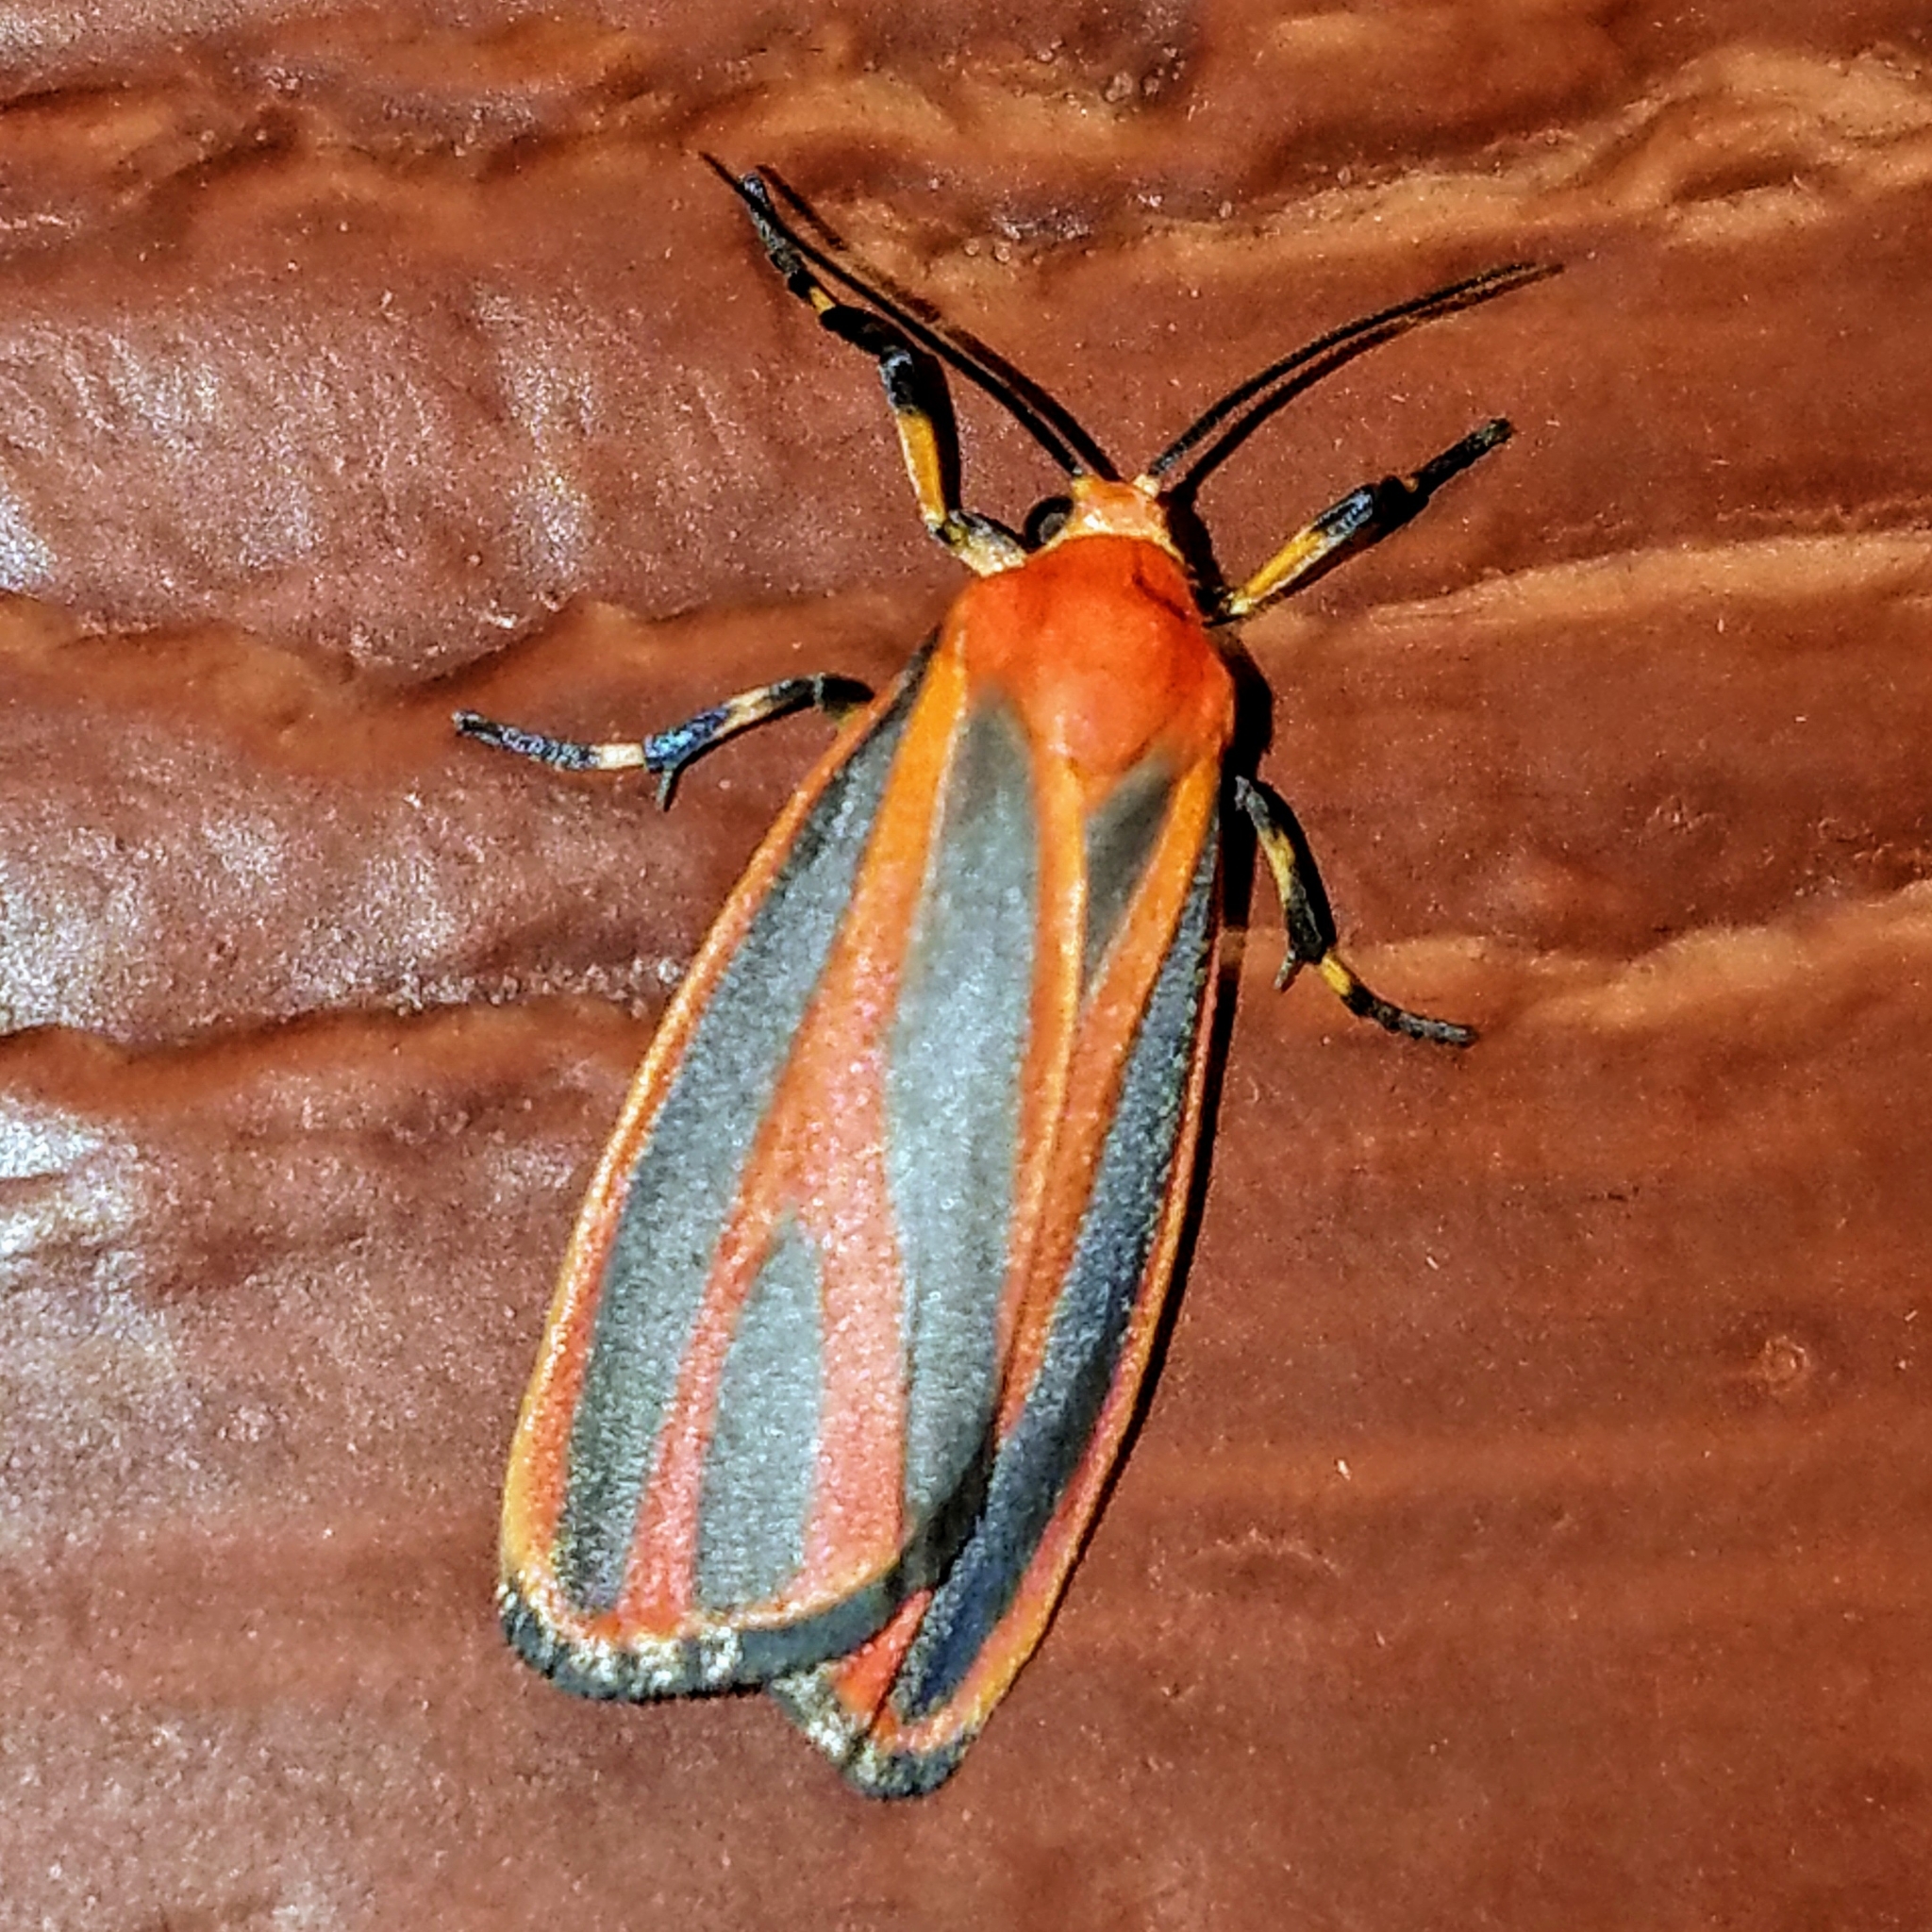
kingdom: Animalia
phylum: Arthropoda
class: Insecta
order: Lepidoptera
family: Erebidae
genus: Hypoprepia
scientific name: Hypoprepia miniata
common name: Scarlet-winged lichen moth
